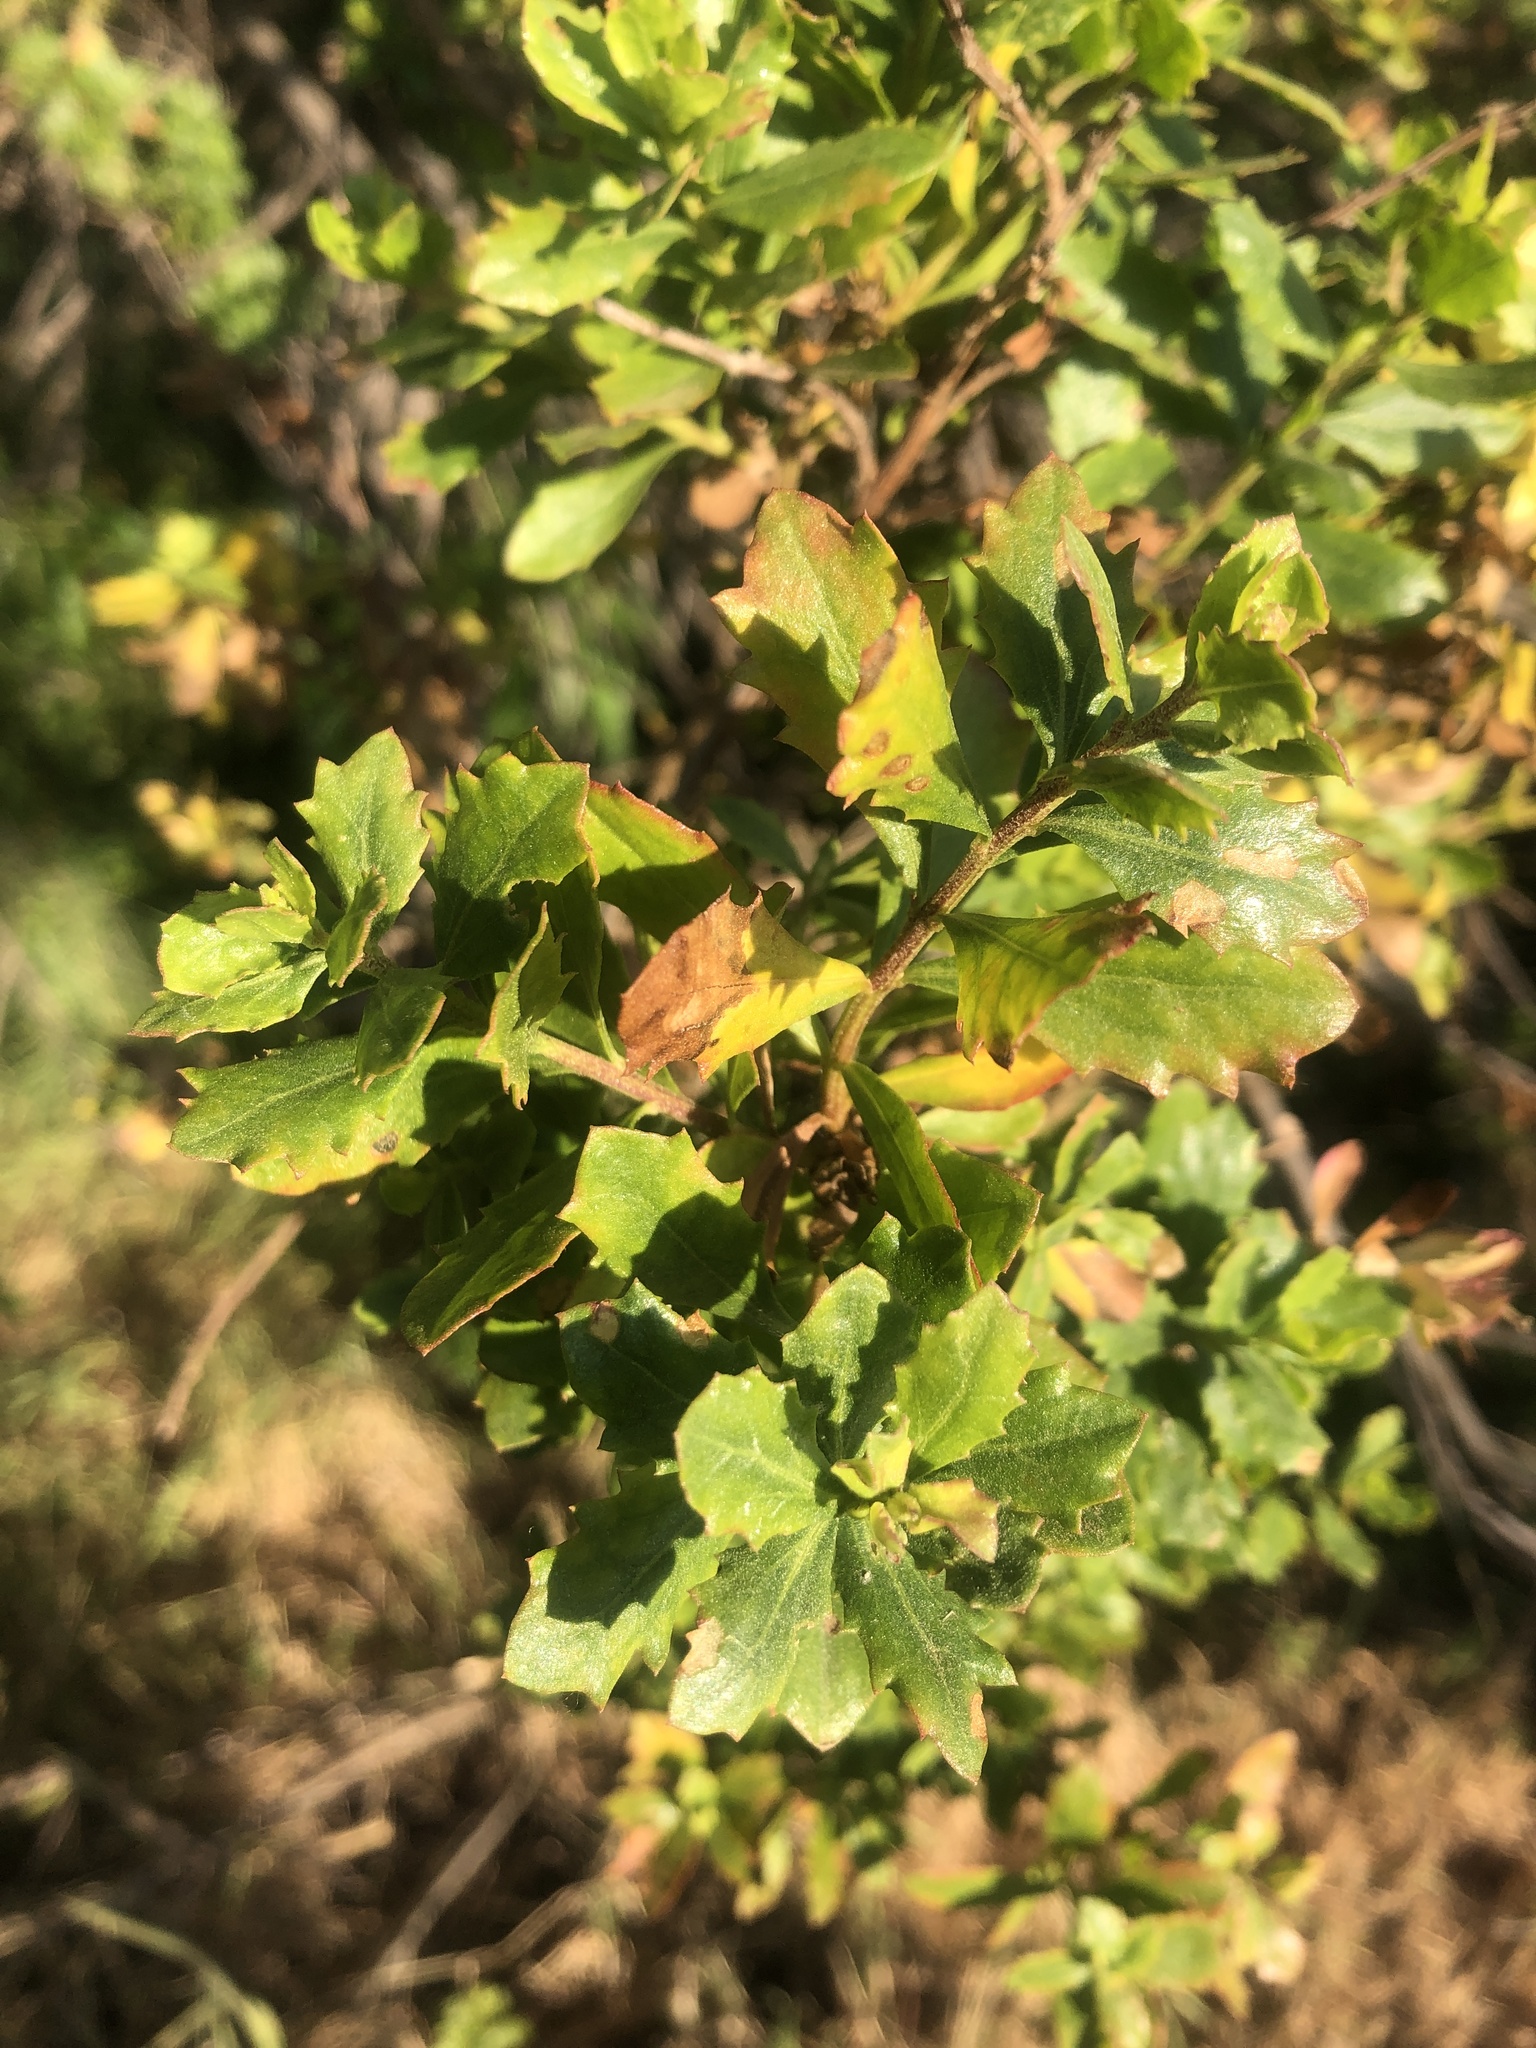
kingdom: Plantae
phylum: Tracheophyta
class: Magnoliopsida
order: Asterales
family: Asteraceae
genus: Baccharis
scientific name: Baccharis pilularis
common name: Coyotebrush
